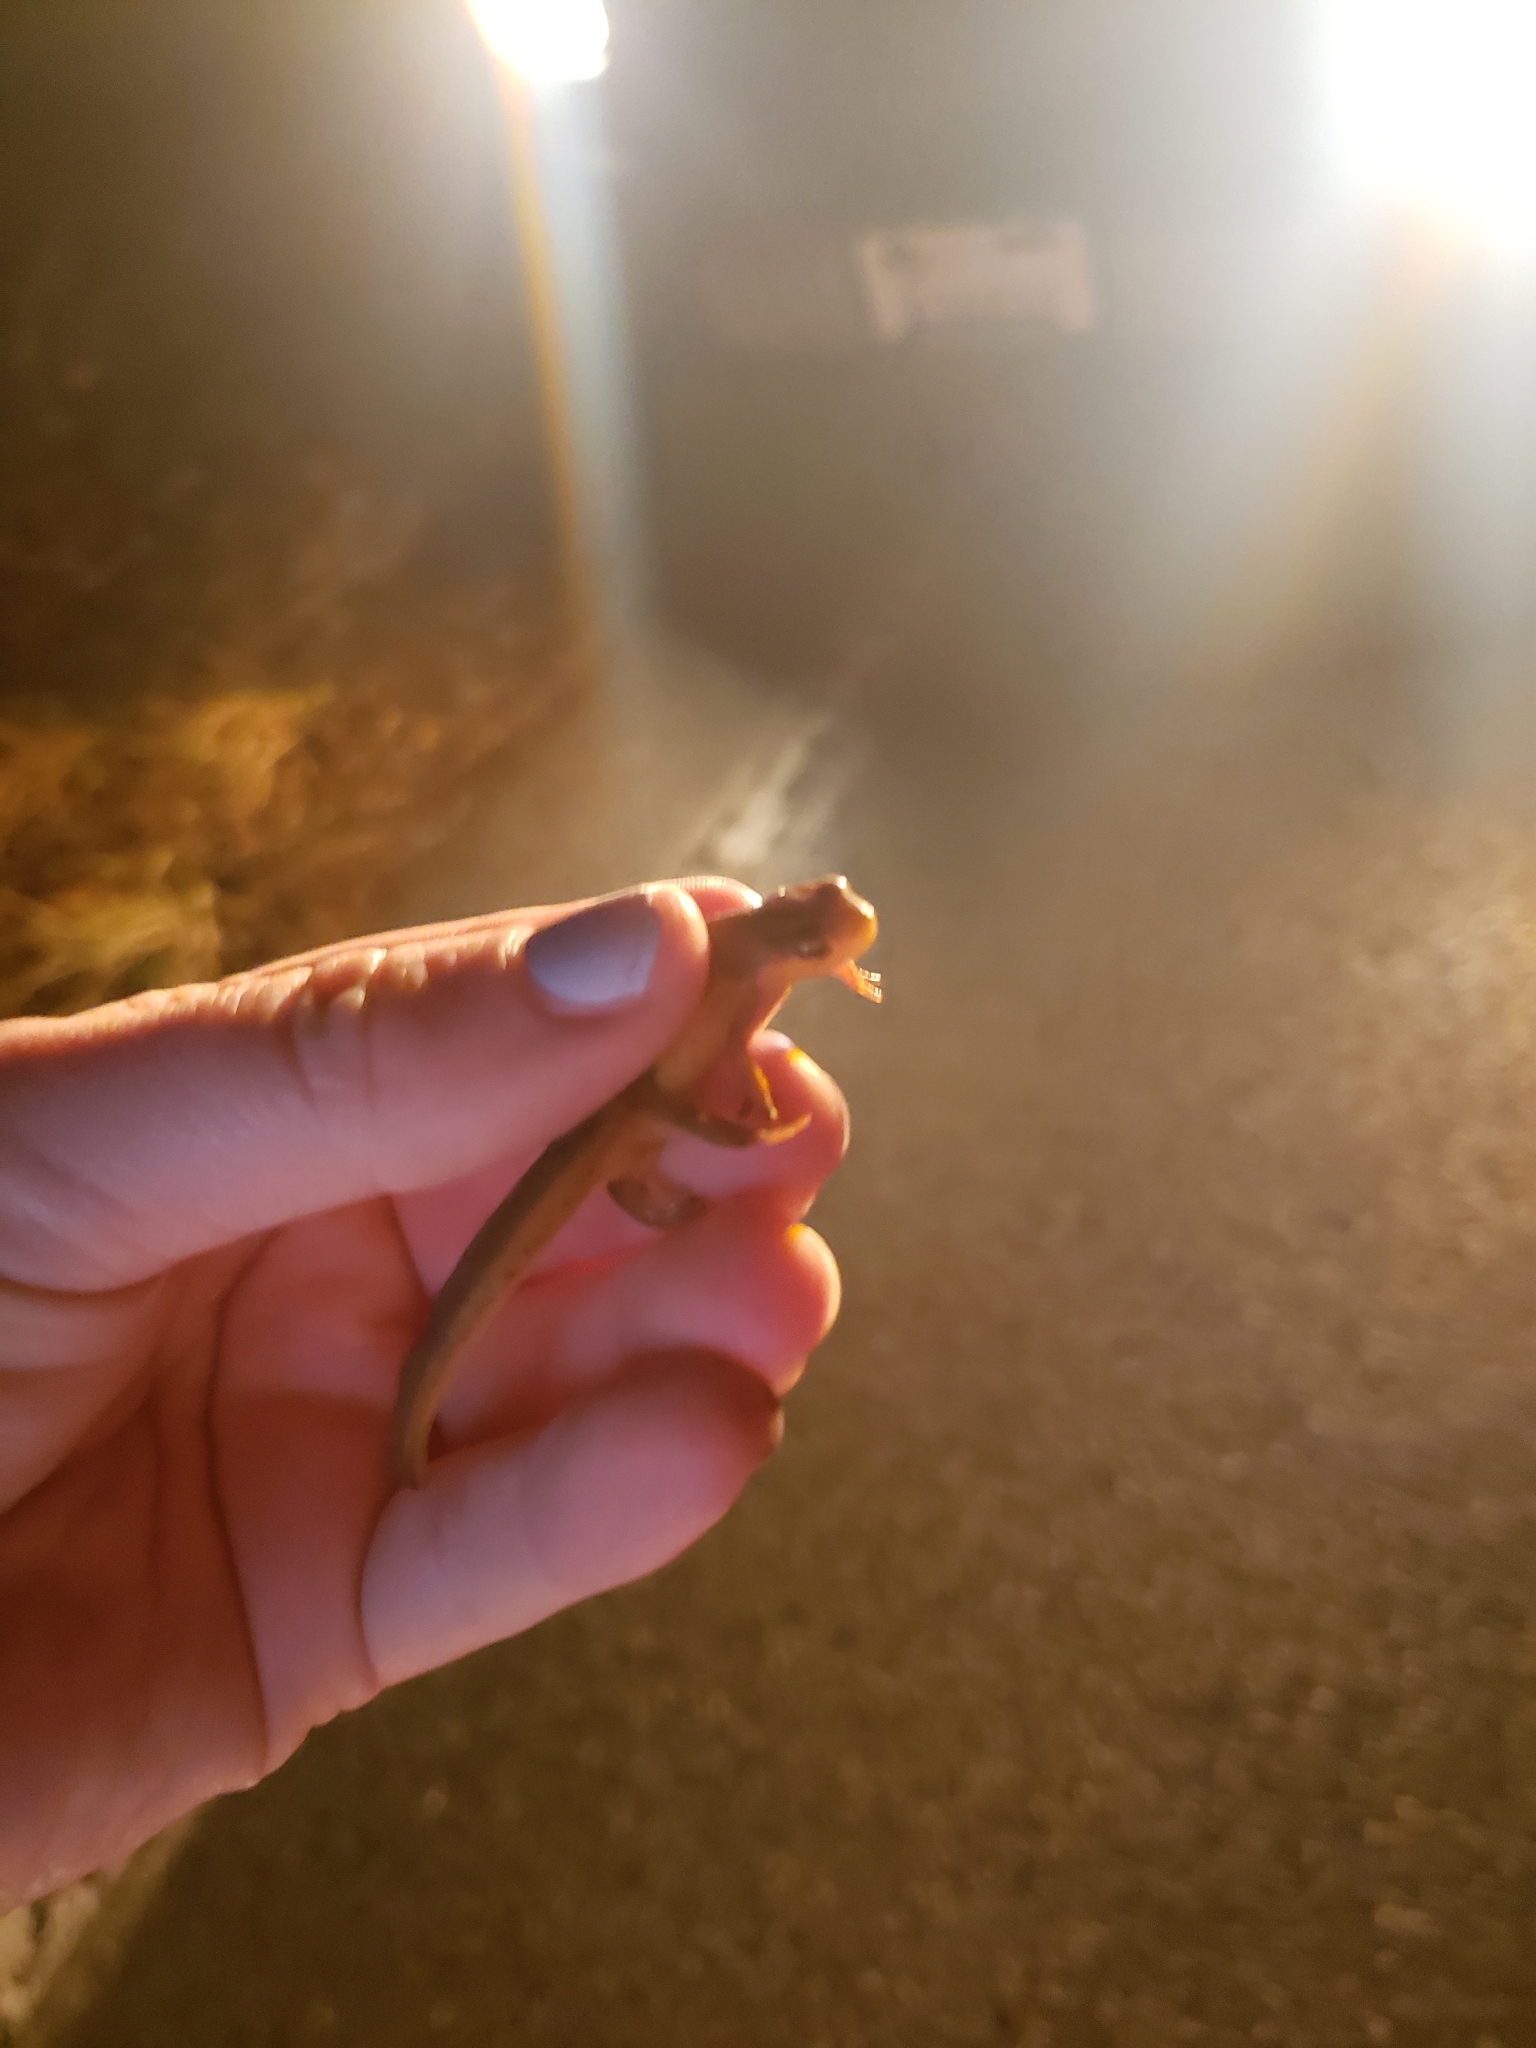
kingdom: Animalia
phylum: Chordata
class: Amphibia
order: Caudata
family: Salamandridae
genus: Notophthalmus
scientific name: Notophthalmus viridescens
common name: Eastern newt
